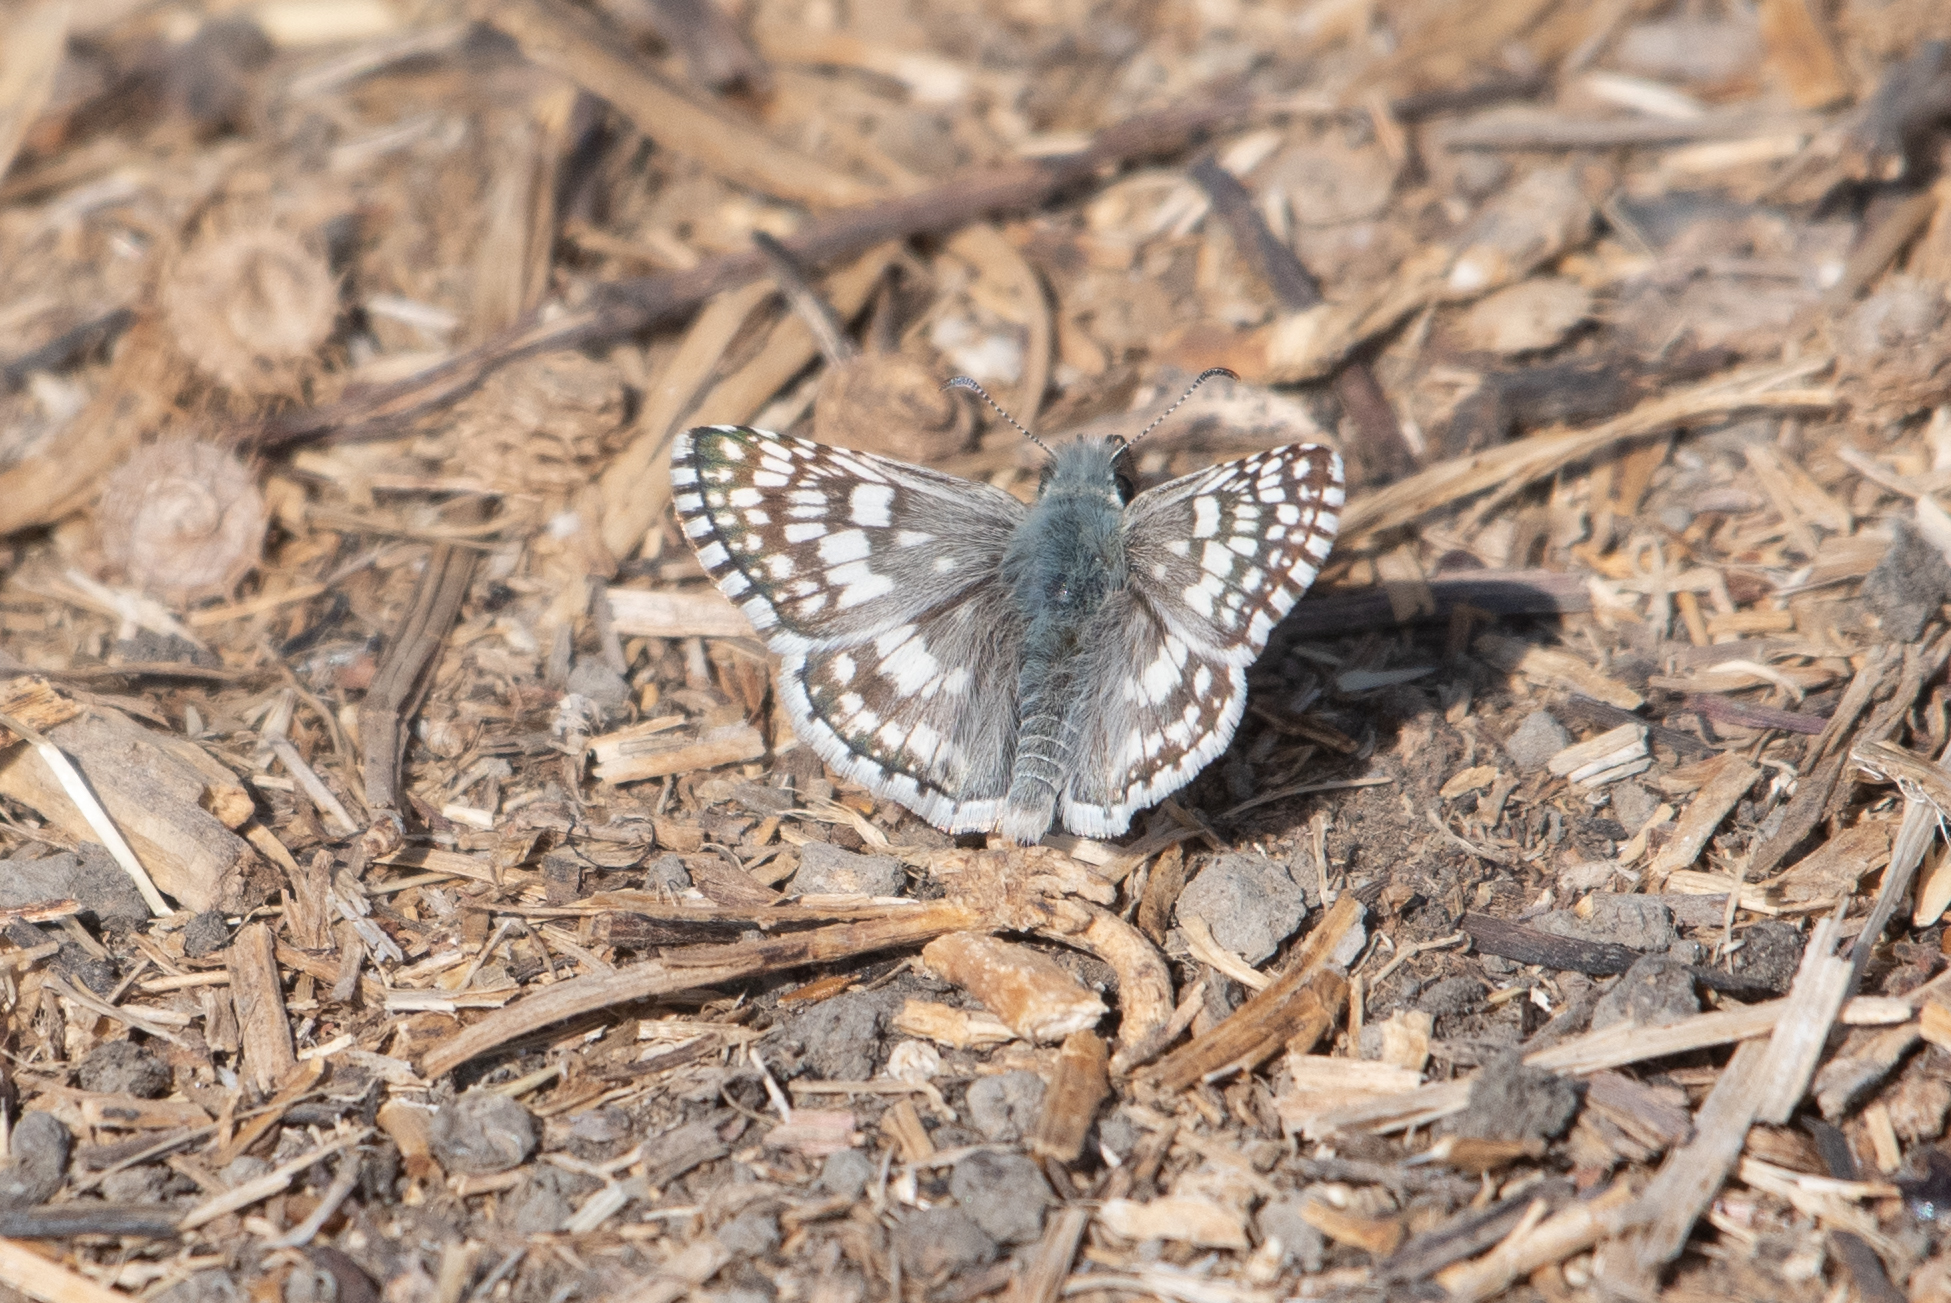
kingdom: Animalia
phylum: Arthropoda
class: Insecta
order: Lepidoptera
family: Hesperiidae
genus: Burnsius
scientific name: Burnsius communis
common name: Common checkered-skipper
